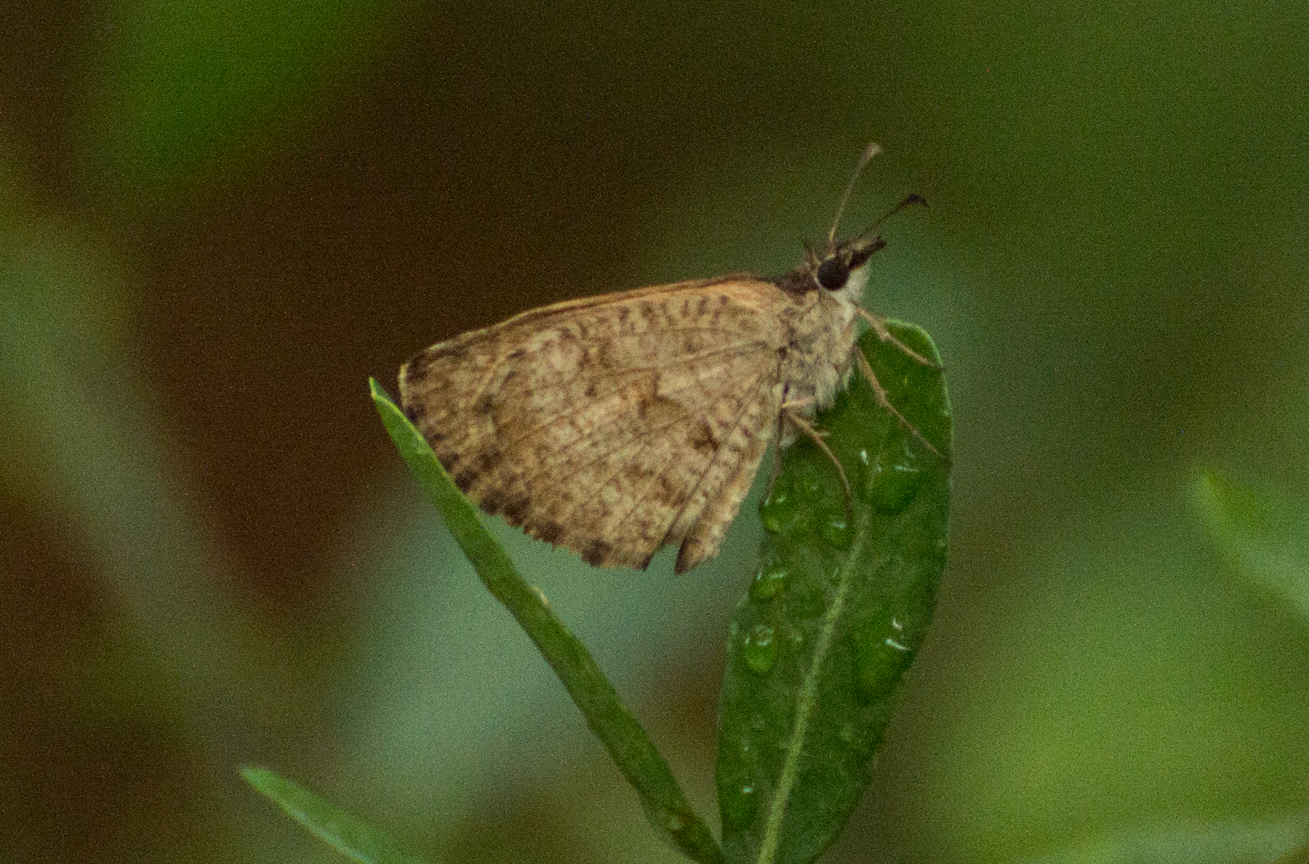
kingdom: Animalia
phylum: Arthropoda
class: Insecta
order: Lepidoptera
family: Hesperiidae
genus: Zopyrion
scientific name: Zopyrion evenor
